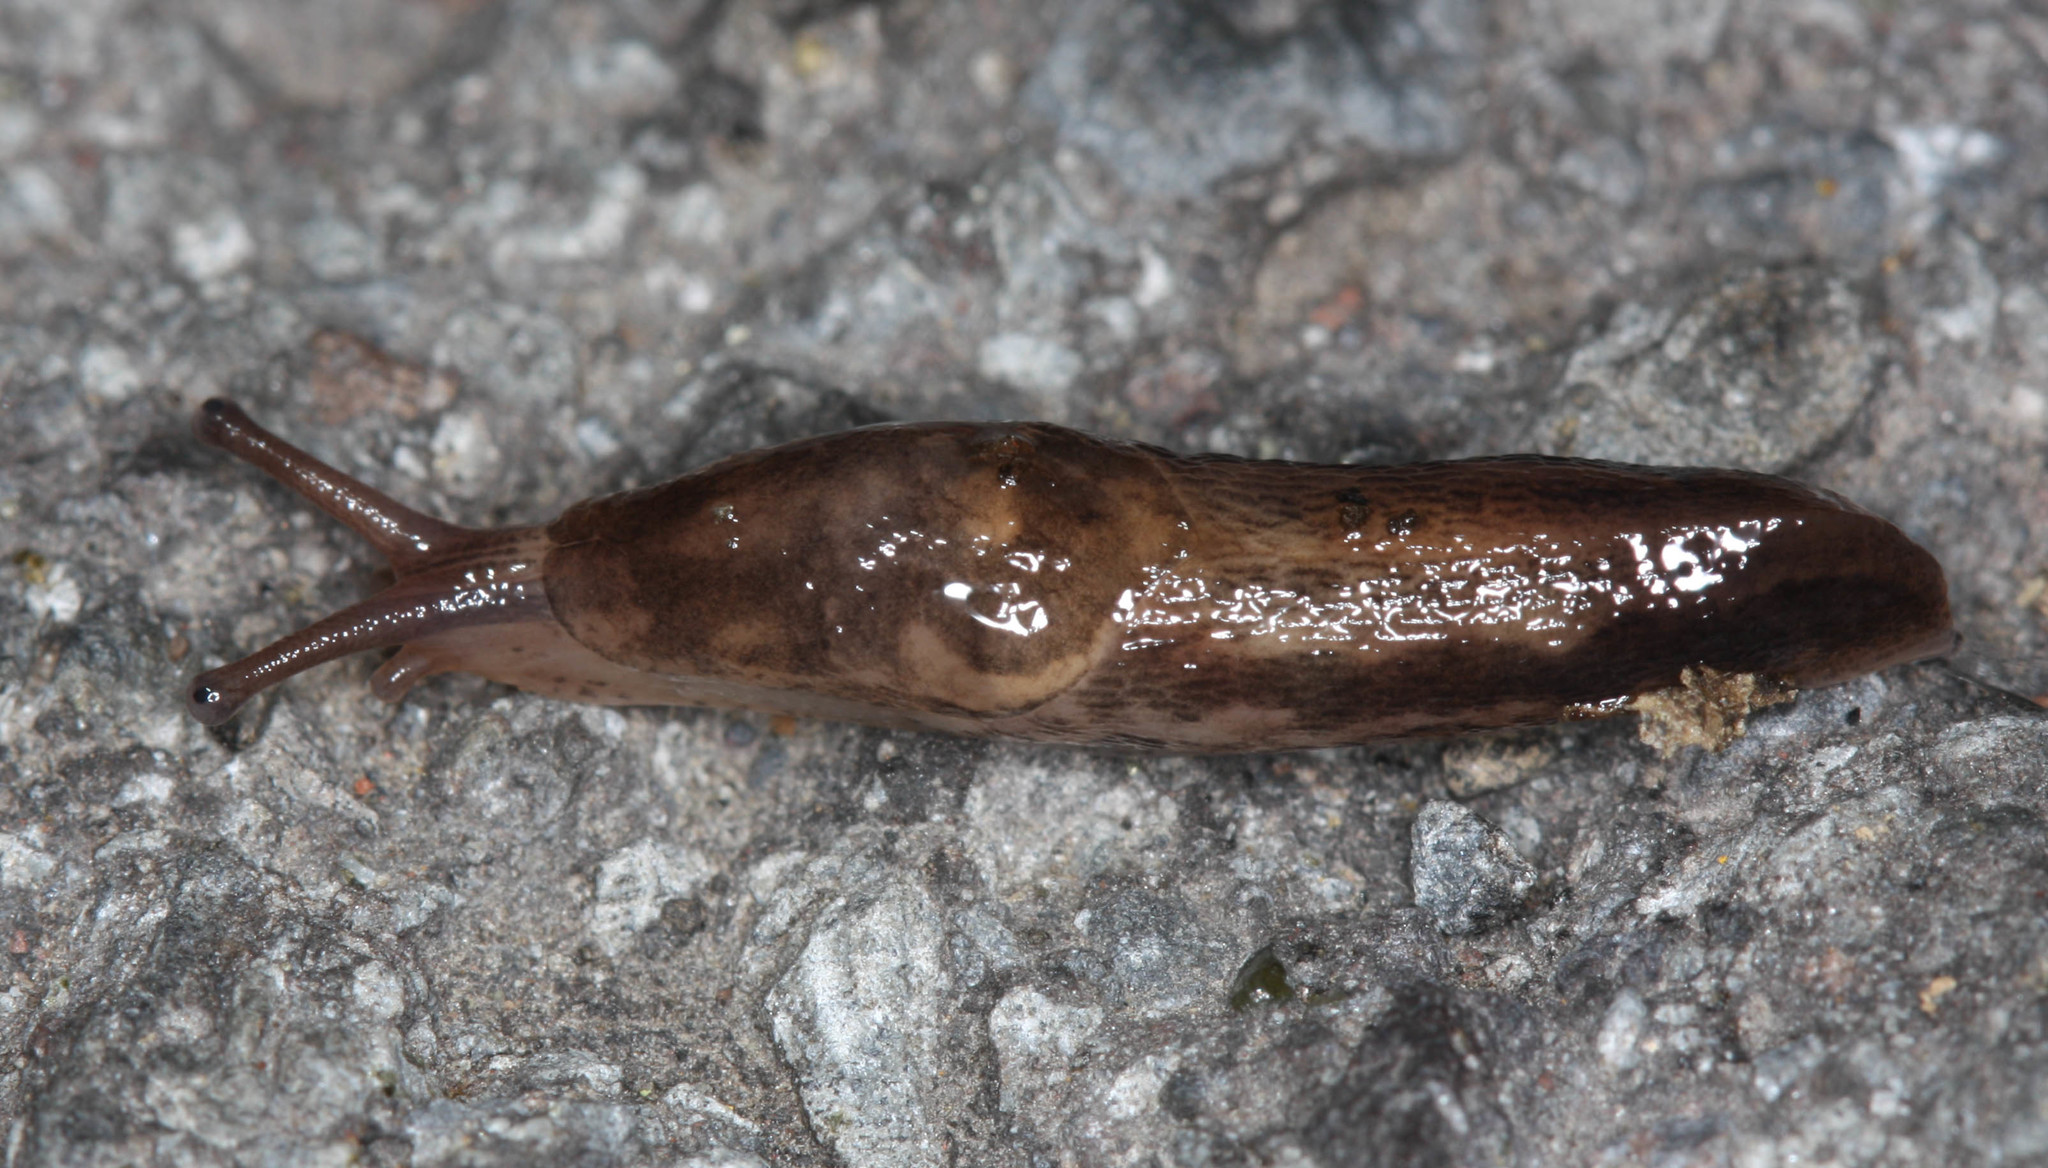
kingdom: Animalia
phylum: Mollusca
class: Gastropoda
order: Stylommatophora
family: Agriolimacidae
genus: Deroceras
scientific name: Deroceras reticulatum
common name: Gray field slug
